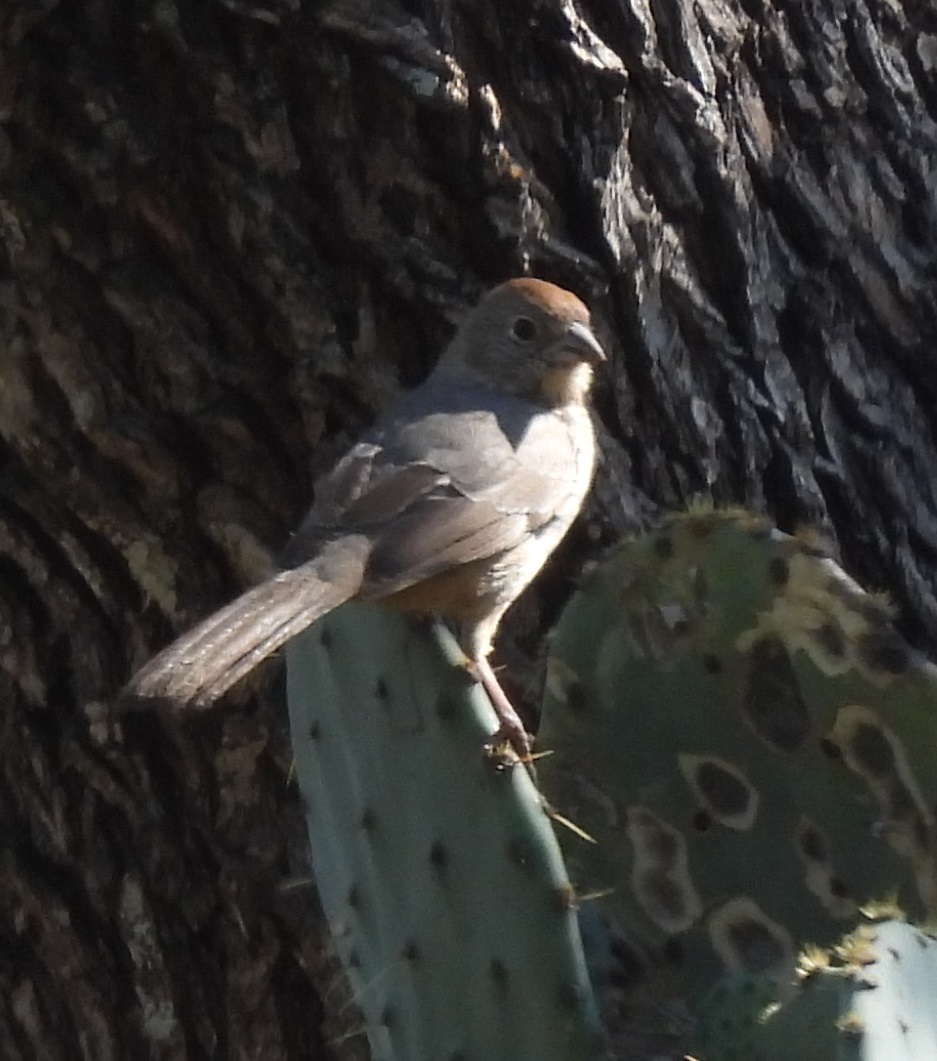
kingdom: Animalia
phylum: Chordata
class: Aves
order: Passeriformes
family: Passerellidae
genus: Melozone
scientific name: Melozone fusca
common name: Canyon towhee
